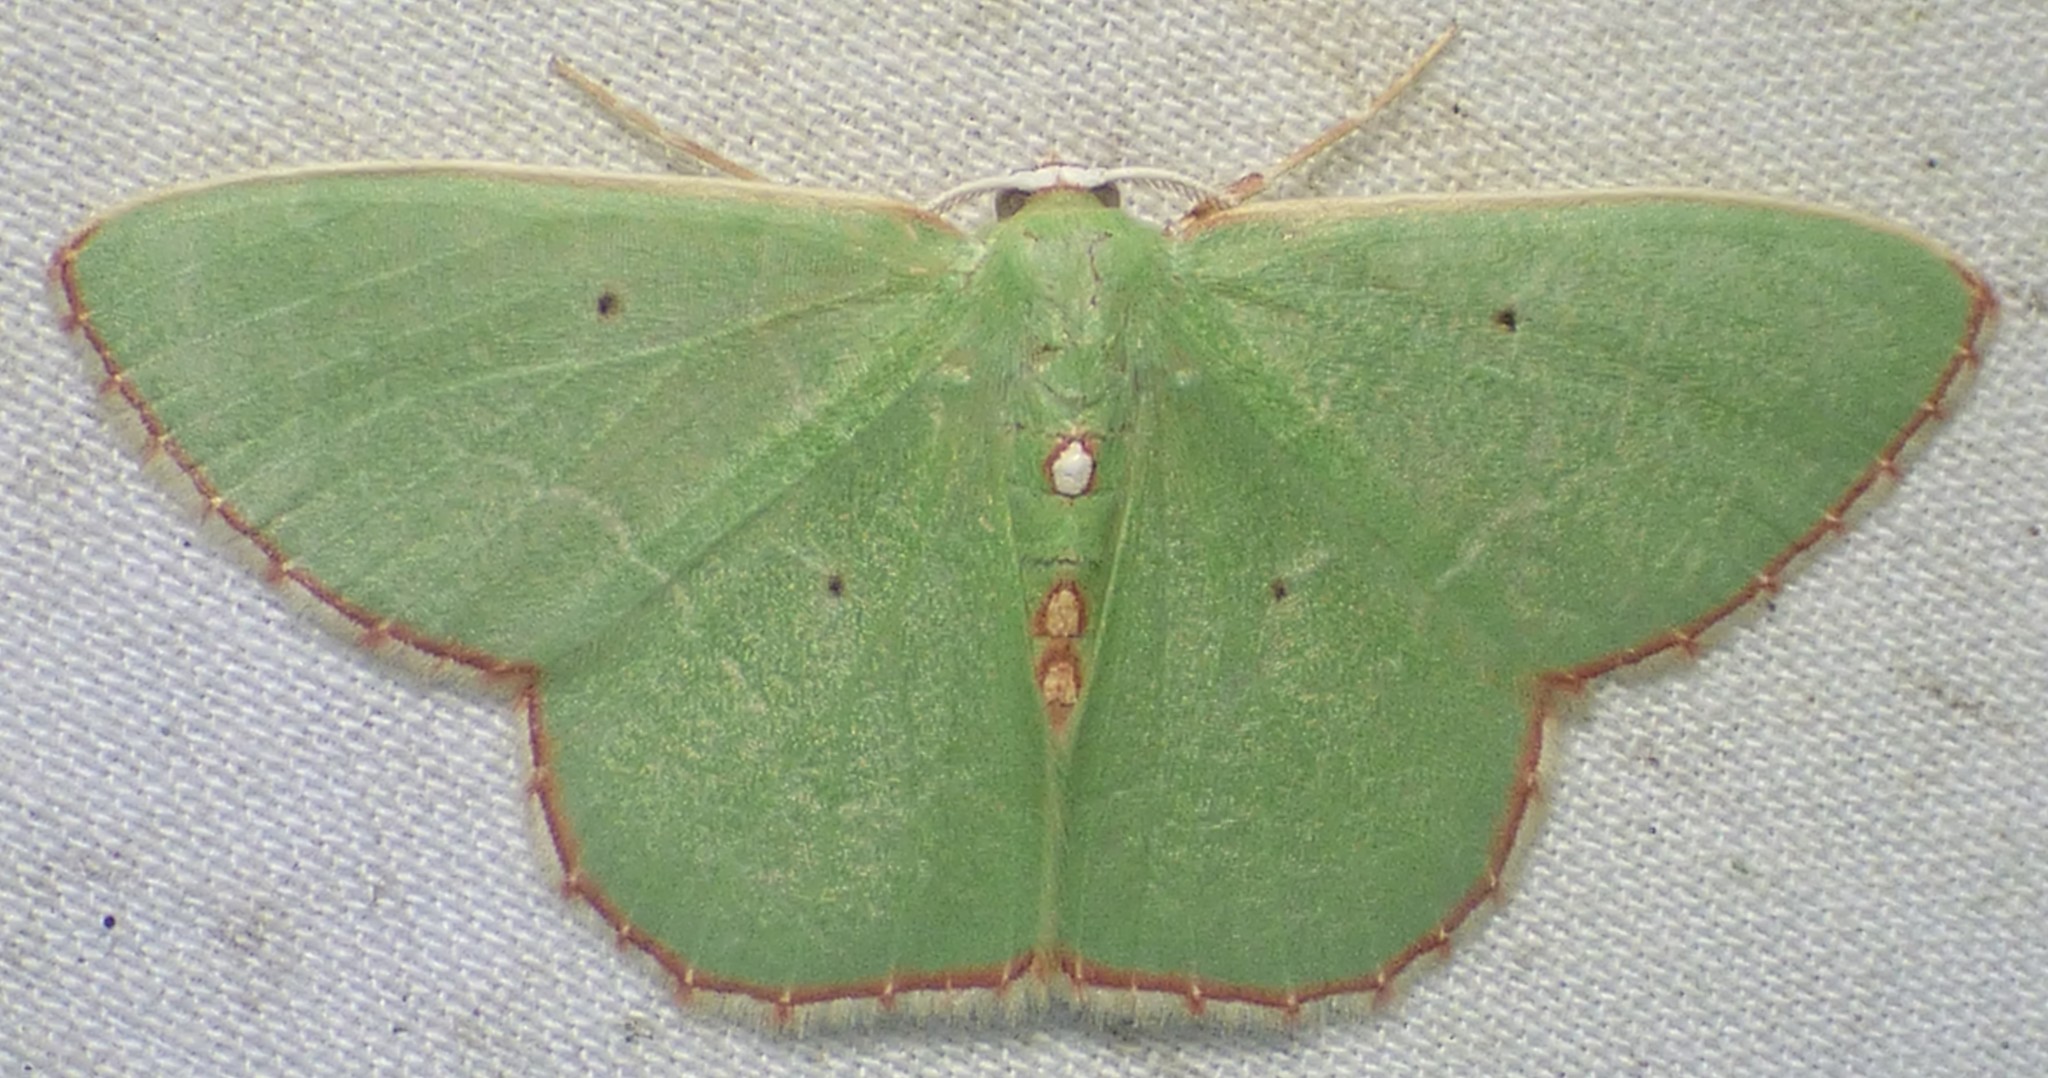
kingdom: Animalia
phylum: Arthropoda
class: Insecta
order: Lepidoptera
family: Geometridae
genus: Nemoria
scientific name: Nemoria lixaria
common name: Red-bordered emerald
